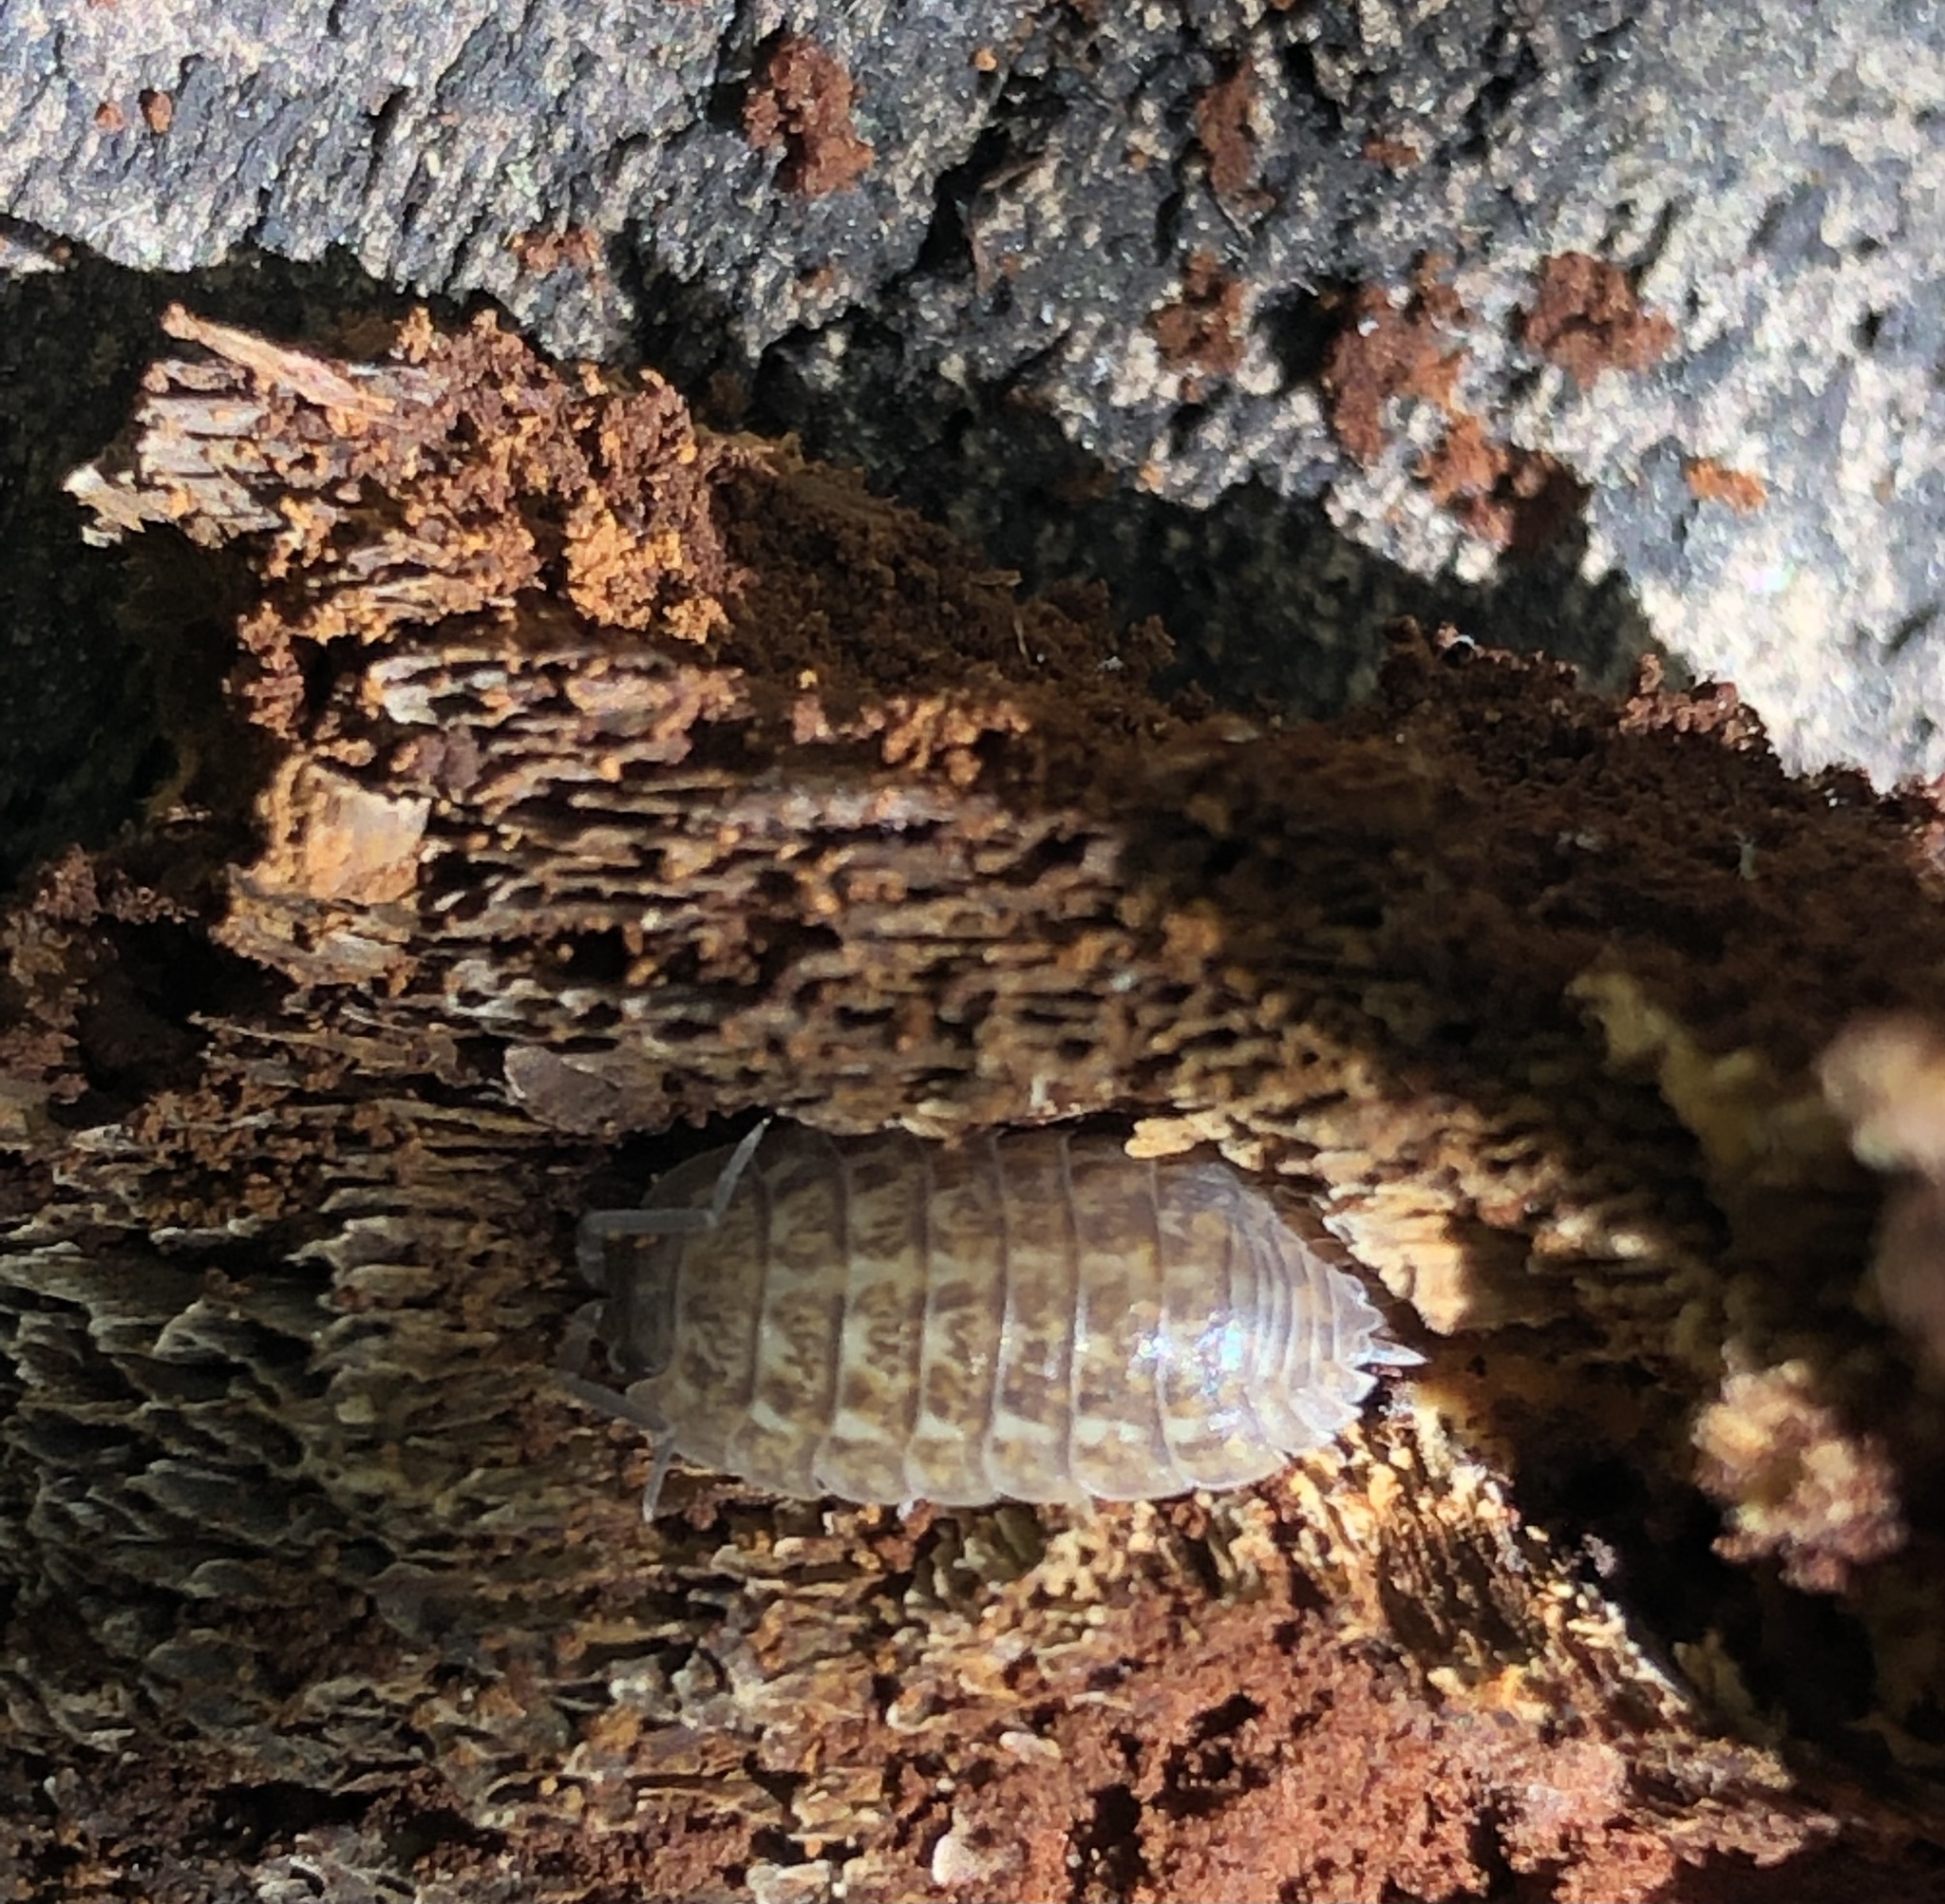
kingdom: Animalia
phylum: Arthropoda
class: Malacostraca
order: Isopoda
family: Trachelipodidae
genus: Trachelipus
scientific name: Trachelipus rathkii
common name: Isopod
